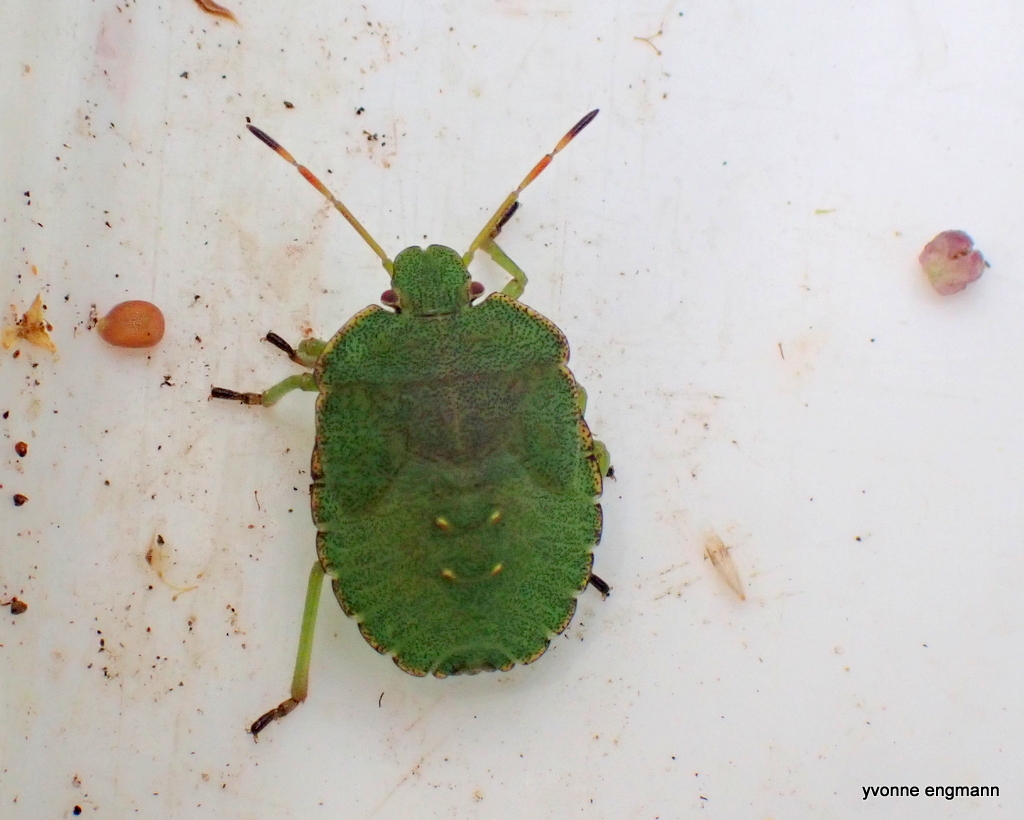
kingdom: Animalia
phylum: Arthropoda
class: Insecta
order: Hemiptera
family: Pentatomidae
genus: Palomena
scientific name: Palomena prasina
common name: Green shieldbug
